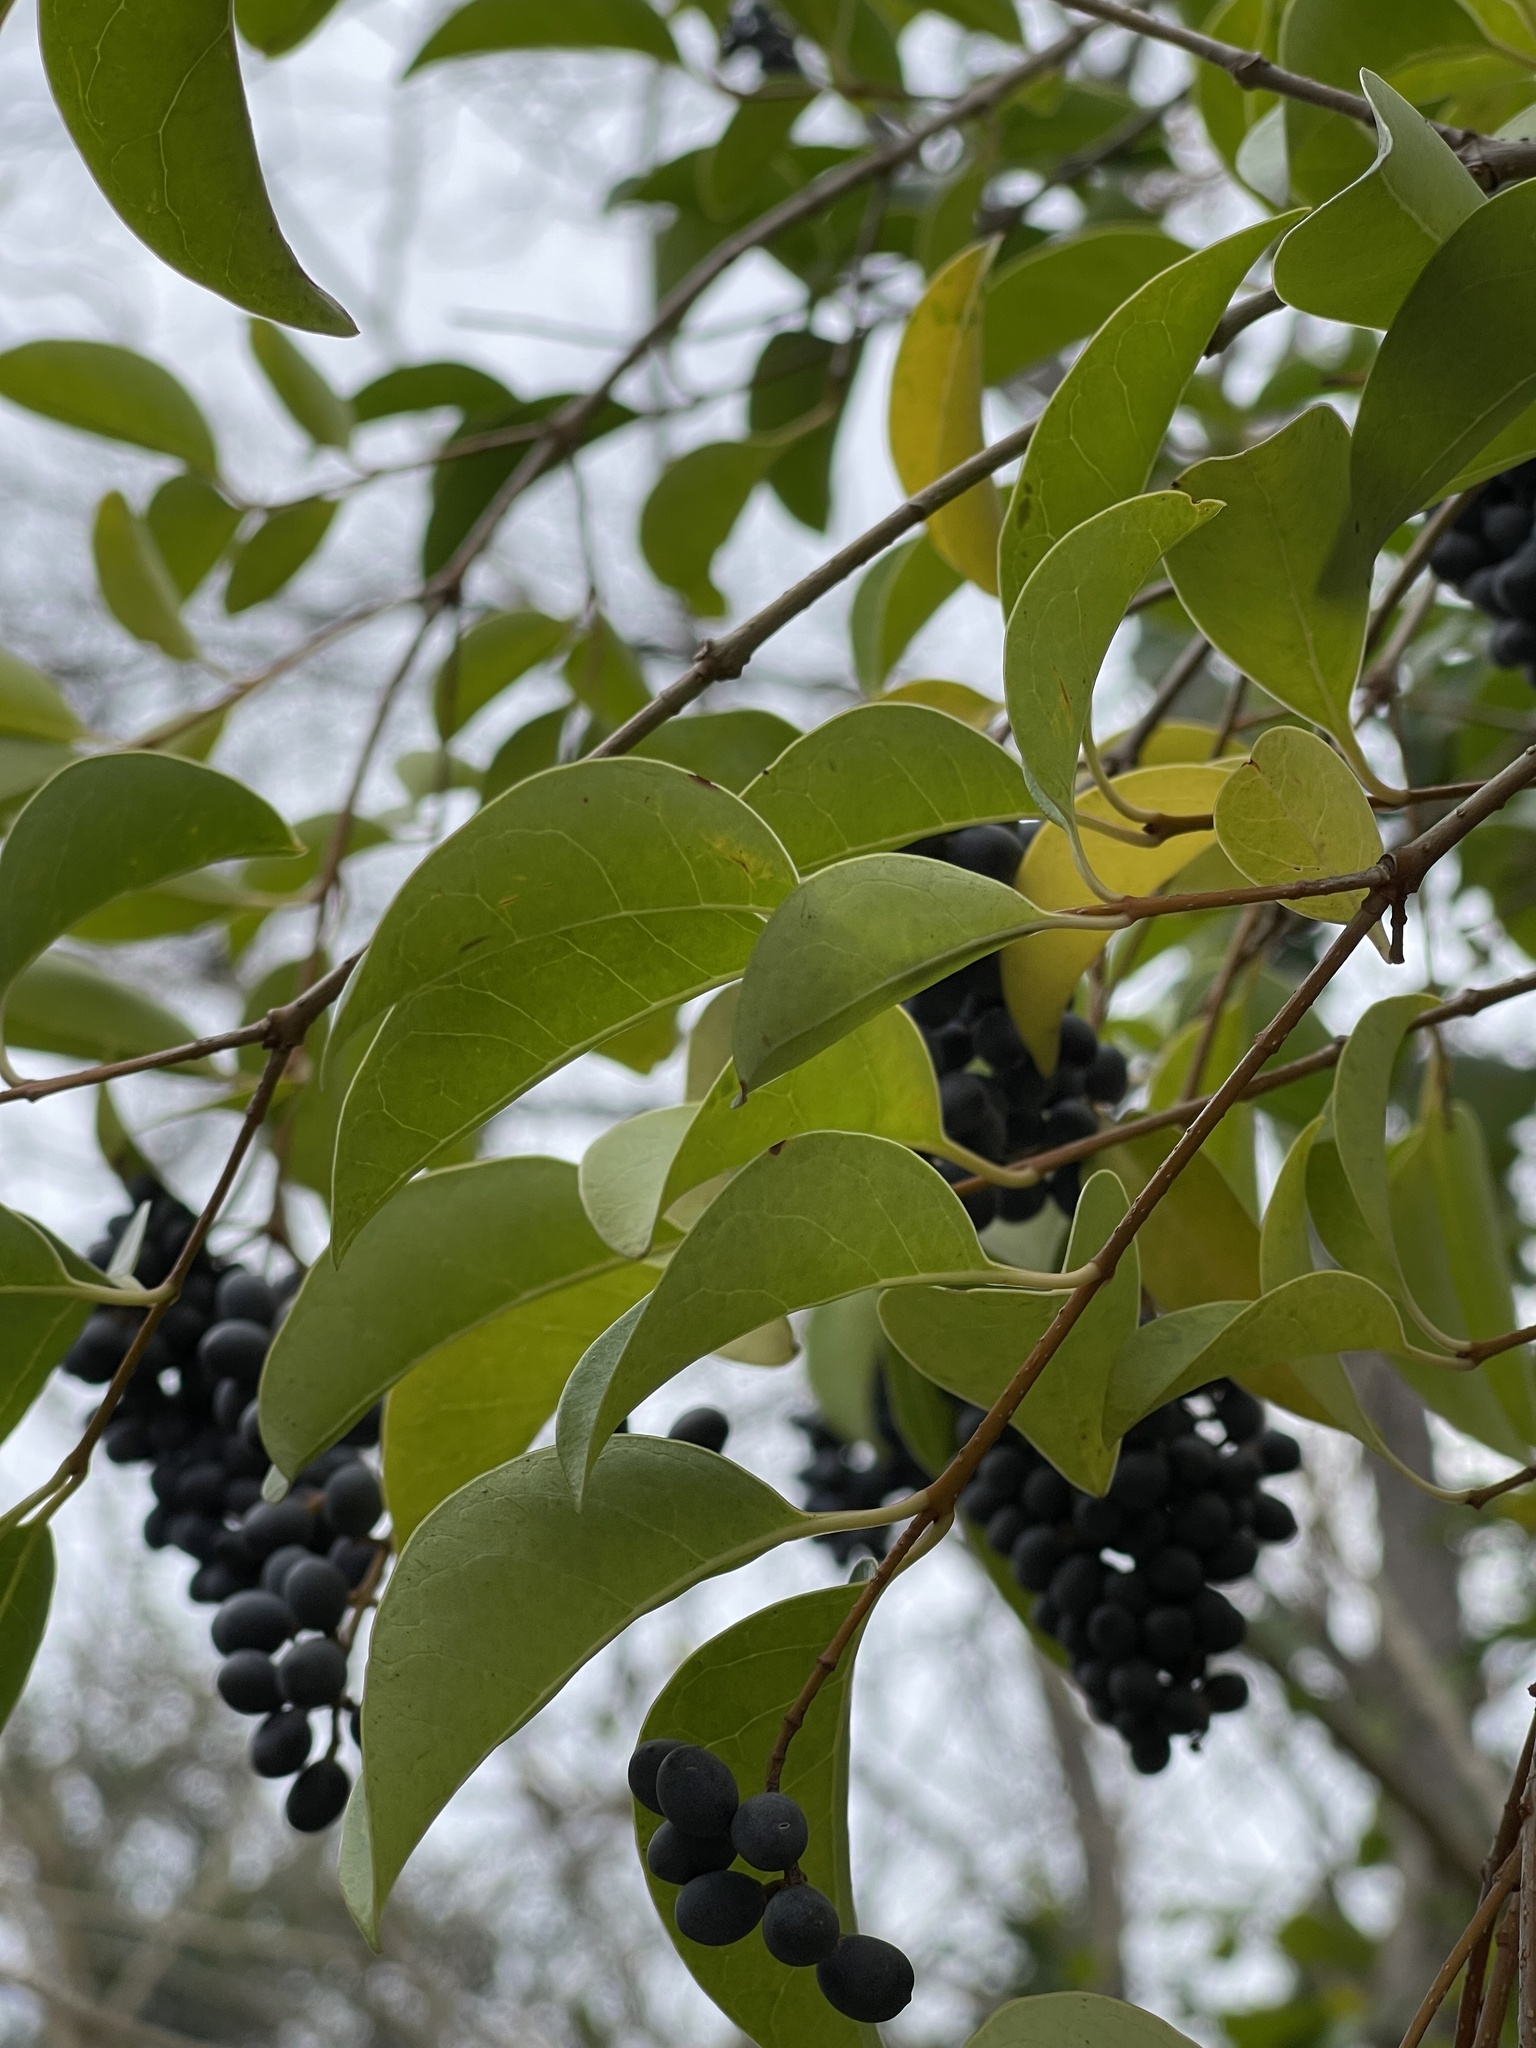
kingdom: Plantae
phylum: Tracheophyta
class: Magnoliopsida
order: Lamiales
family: Oleaceae
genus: Ligustrum
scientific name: Ligustrum lucidum
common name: Glossy privet
